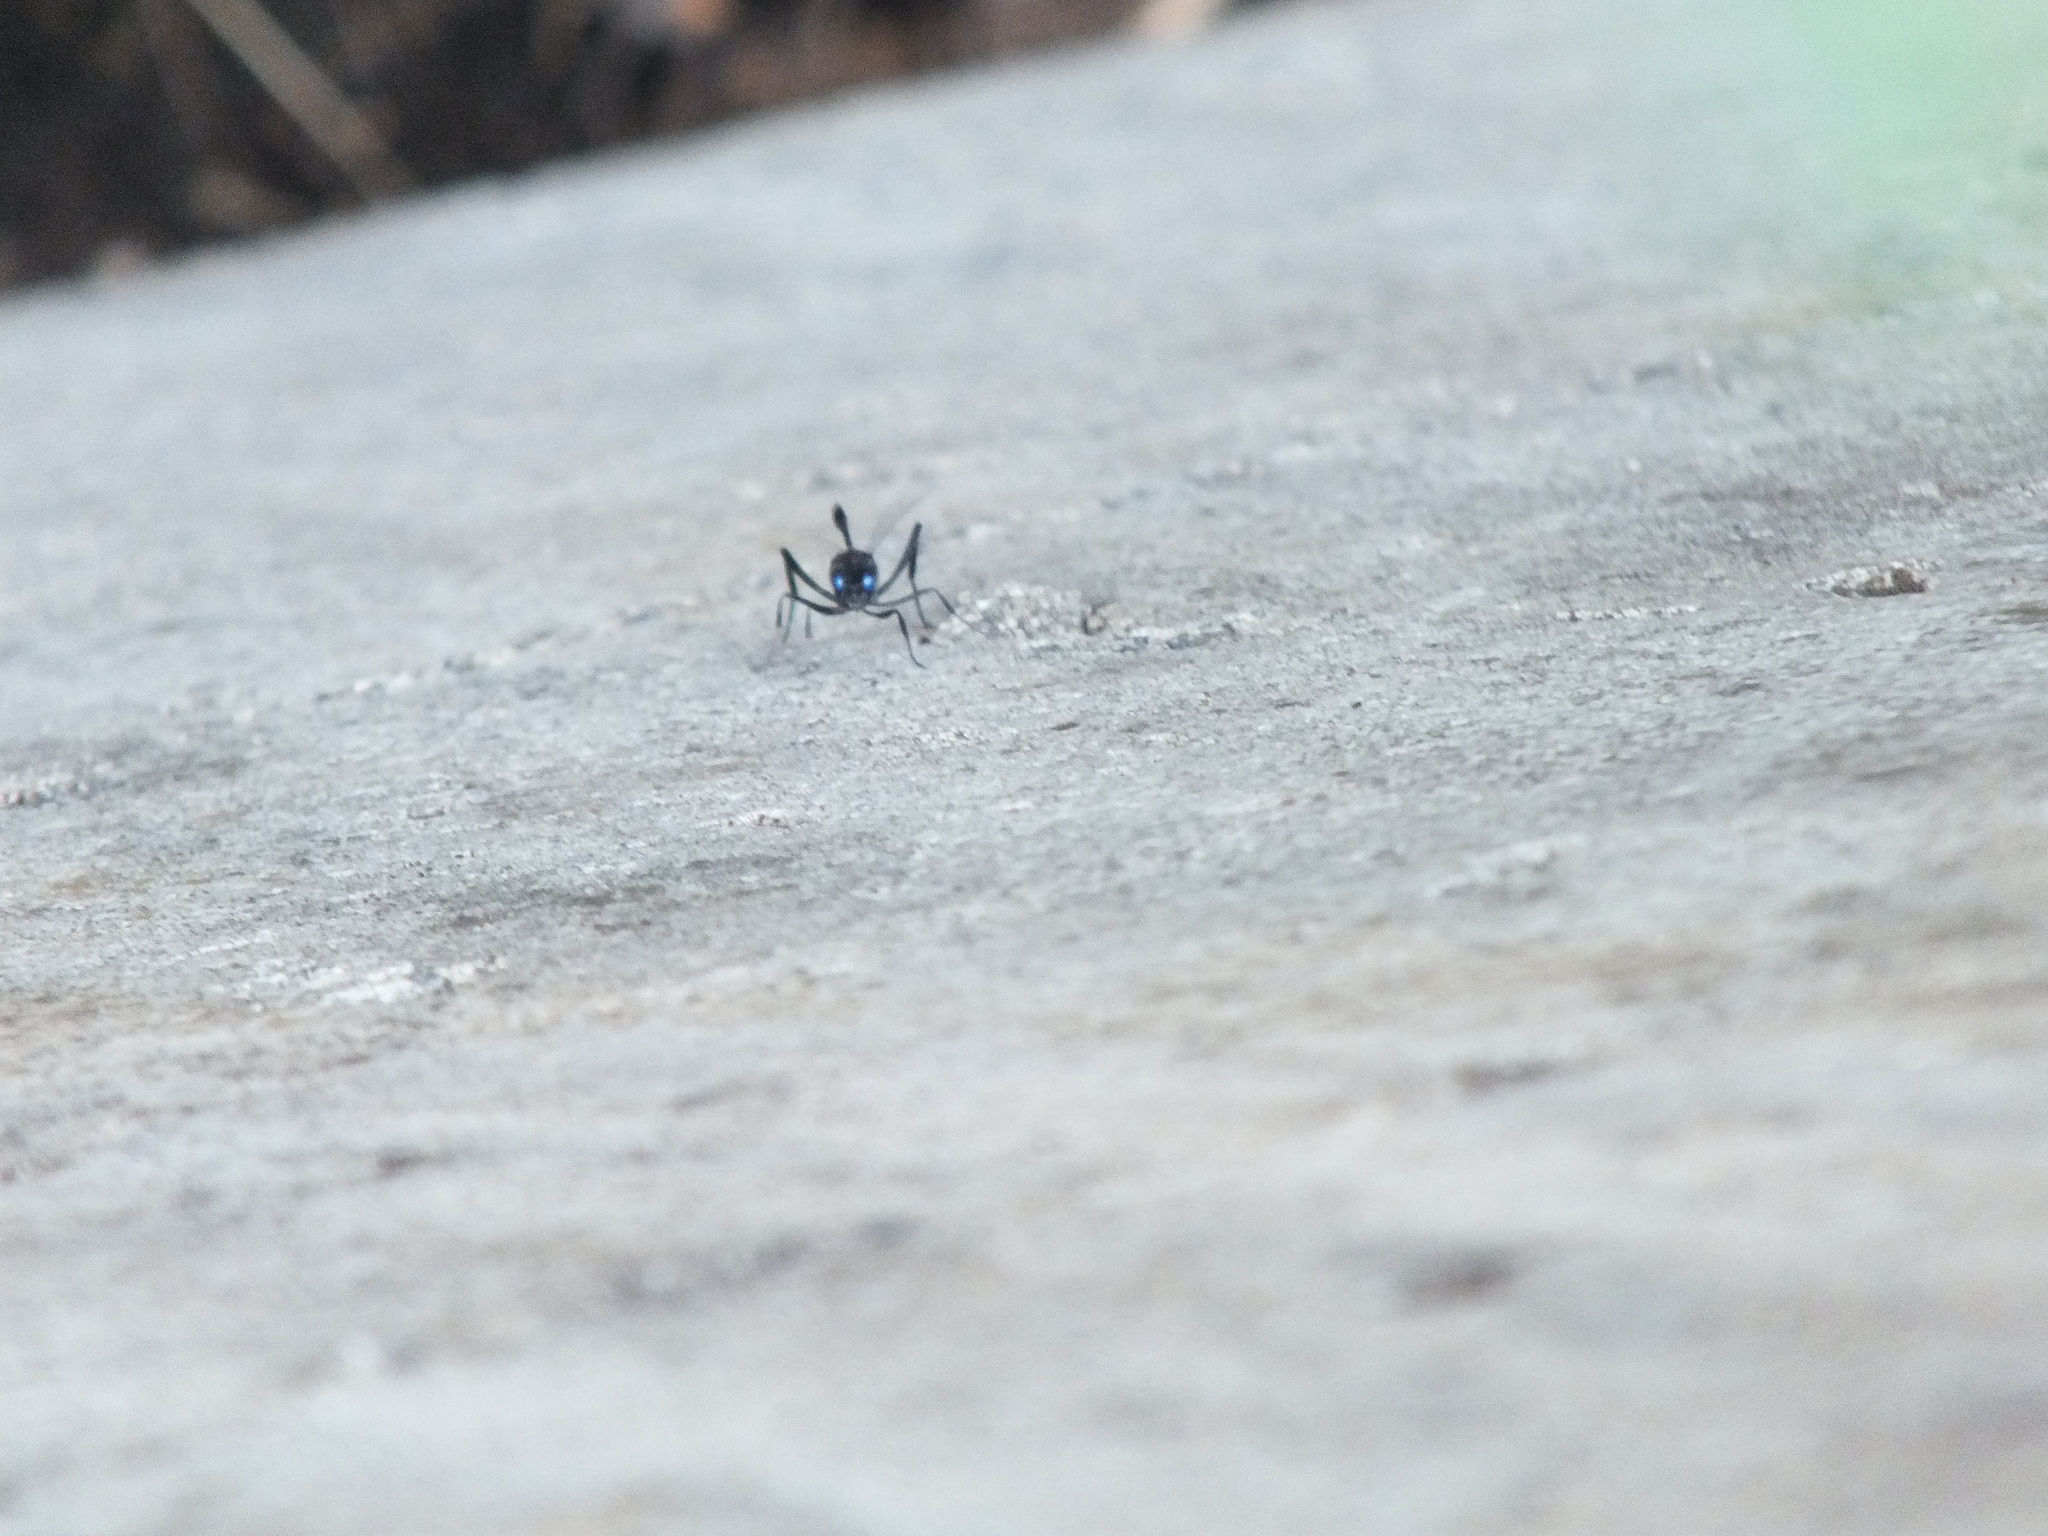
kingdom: Animalia
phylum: Arthropoda
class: Insecta
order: Hymenoptera
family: Evaniidae
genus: Evania
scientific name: Evania appendigaster
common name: Ensign wasp
